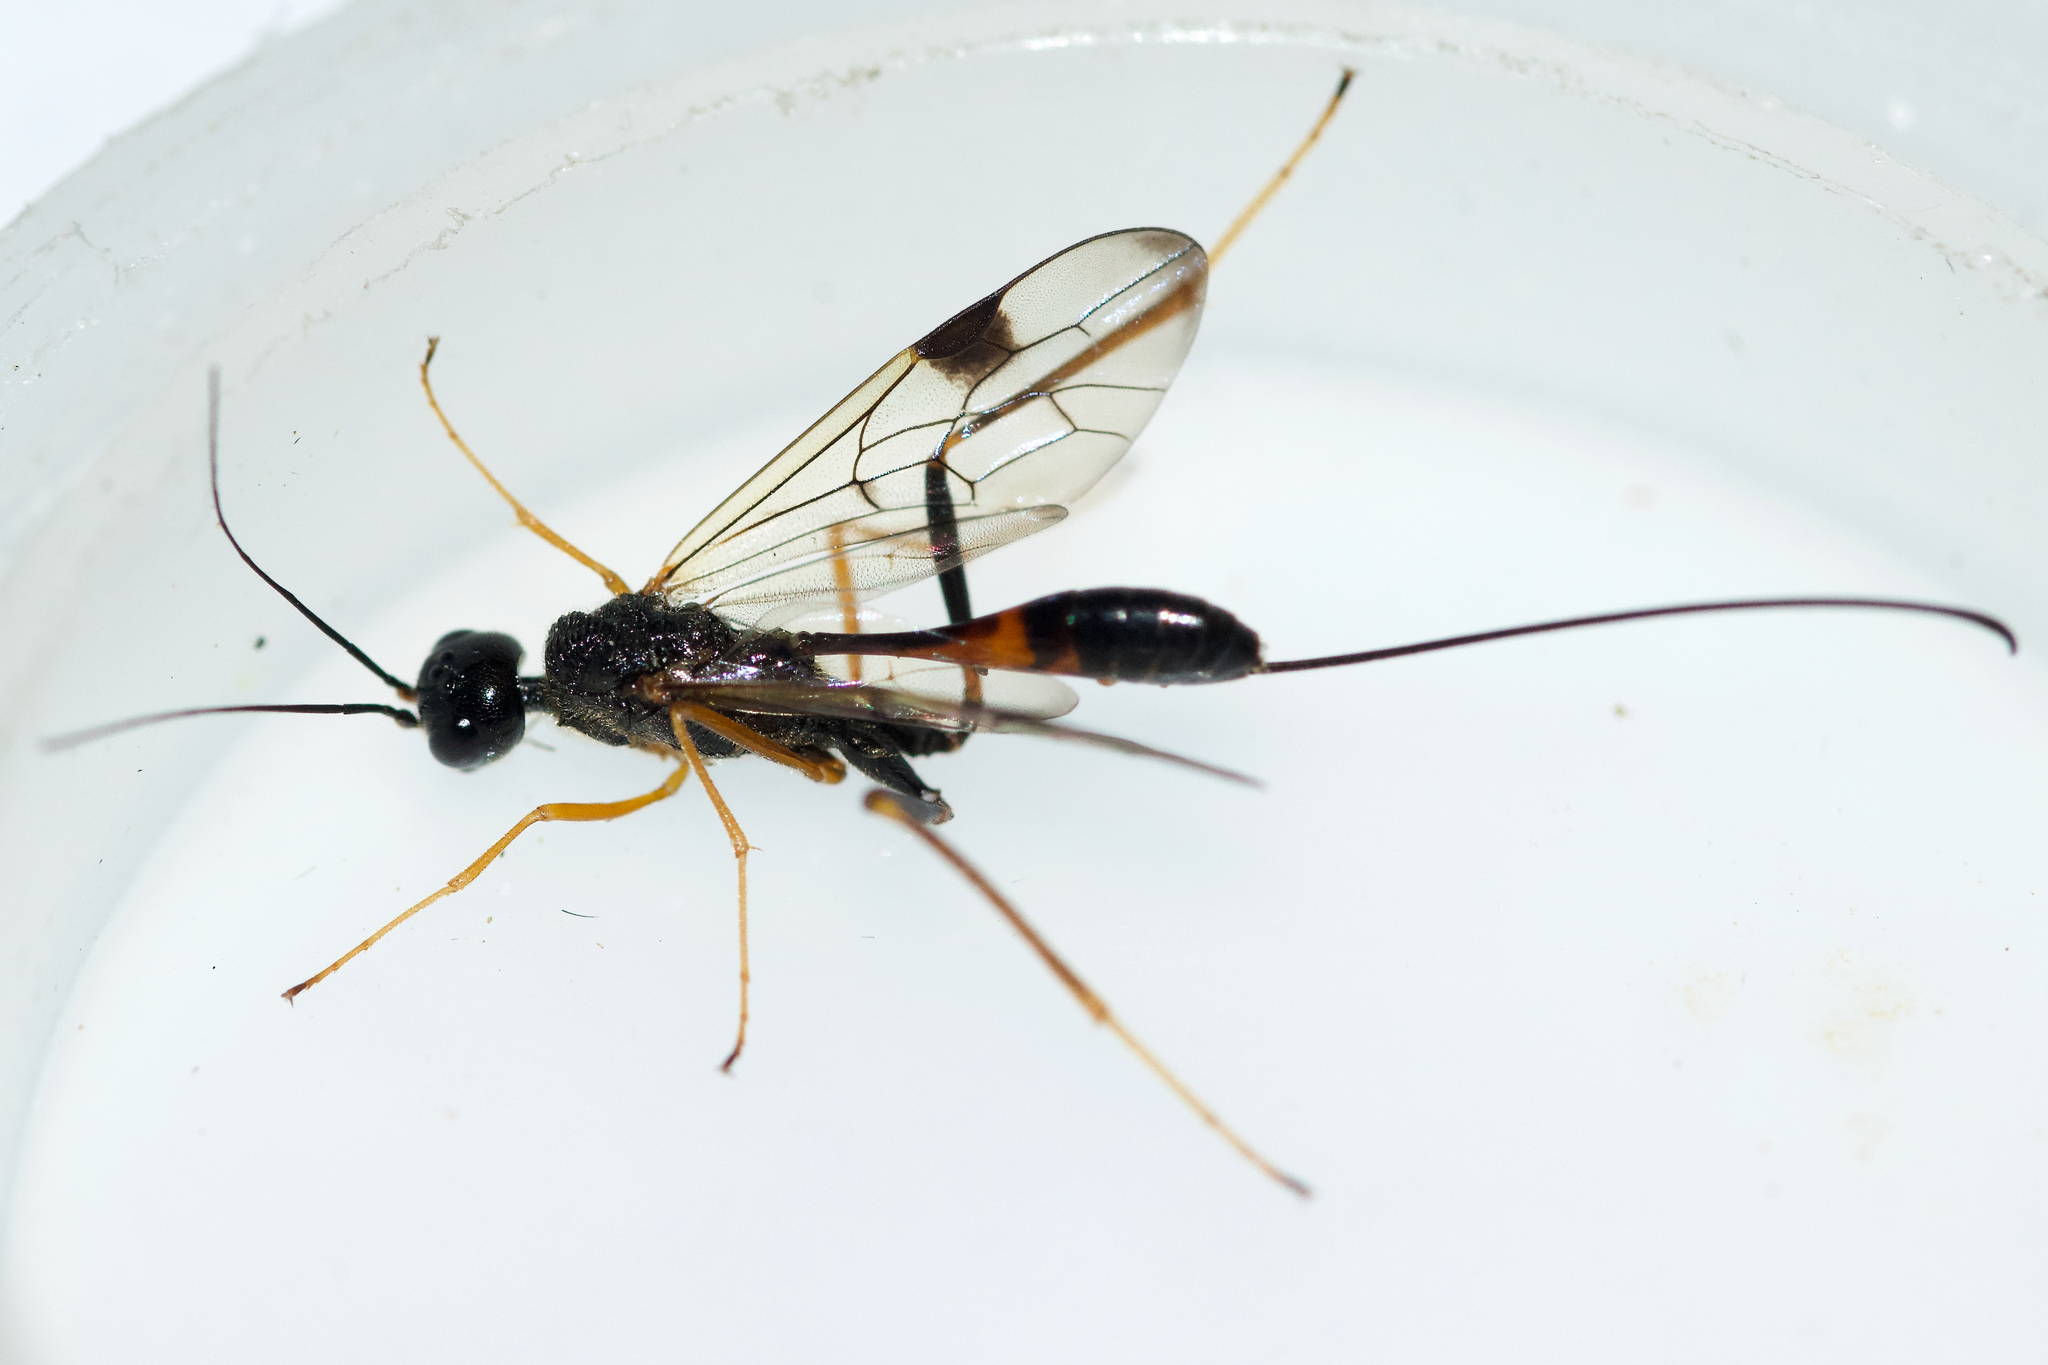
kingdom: Animalia
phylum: Arthropoda
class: Insecta
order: Hymenoptera
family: Aulacidae
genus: Pristaulacus
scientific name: Pristaulacus
